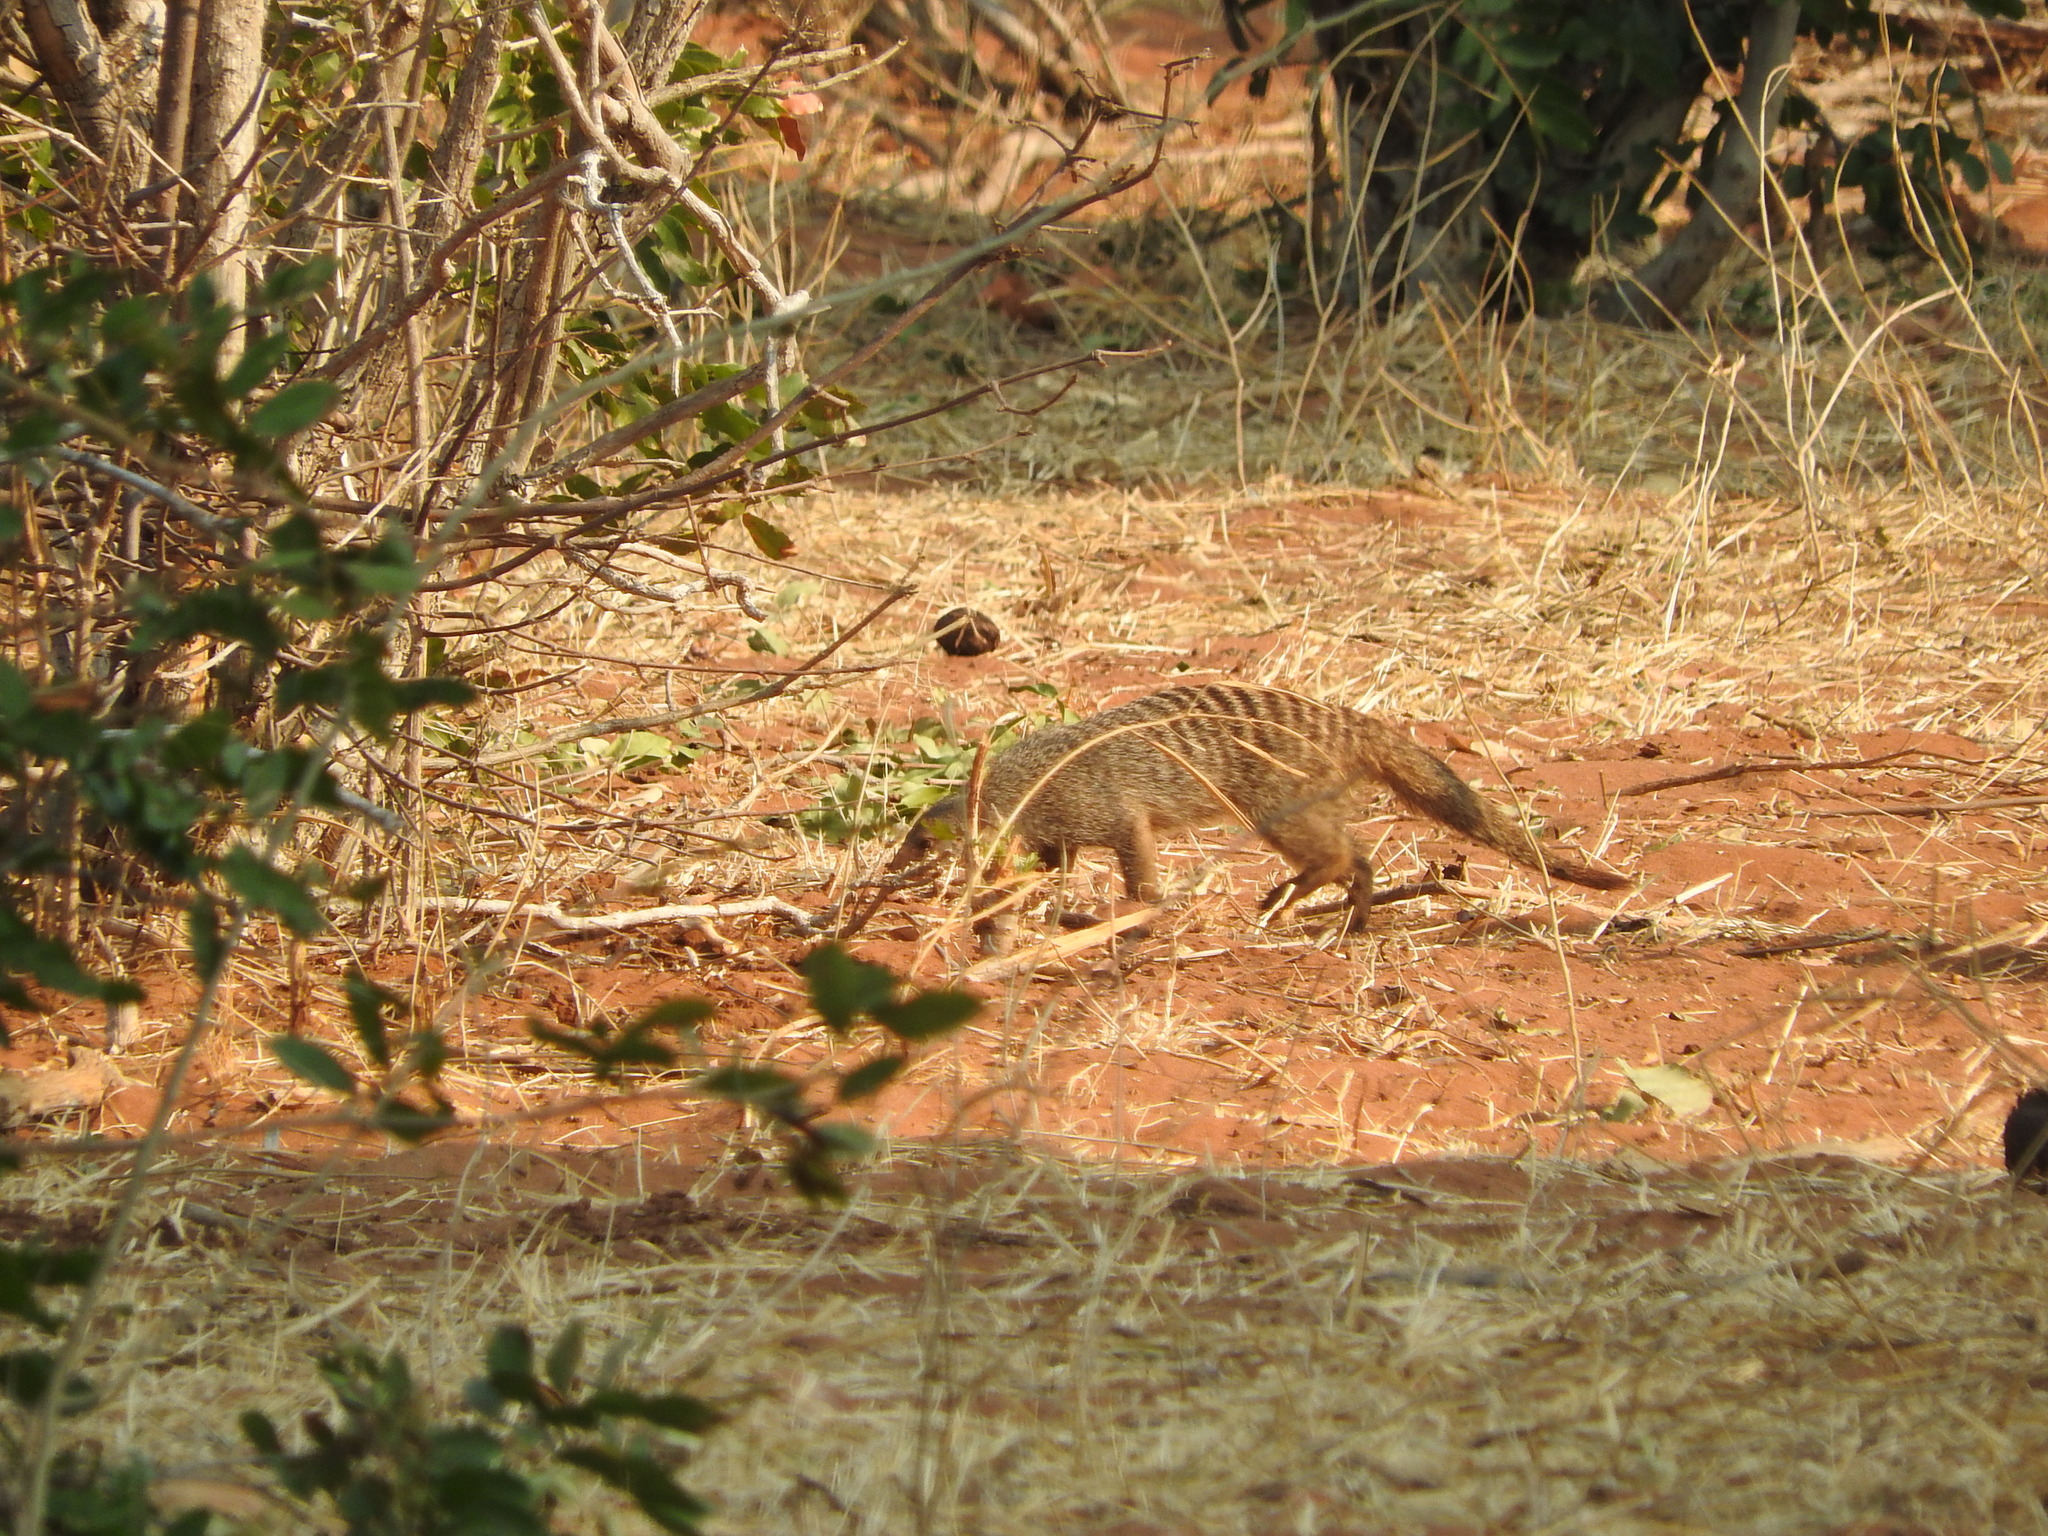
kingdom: Animalia
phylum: Chordata
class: Mammalia
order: Carnivora
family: Herpestidae
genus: Mungos
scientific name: Mungos mungo
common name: Banded mongoose
